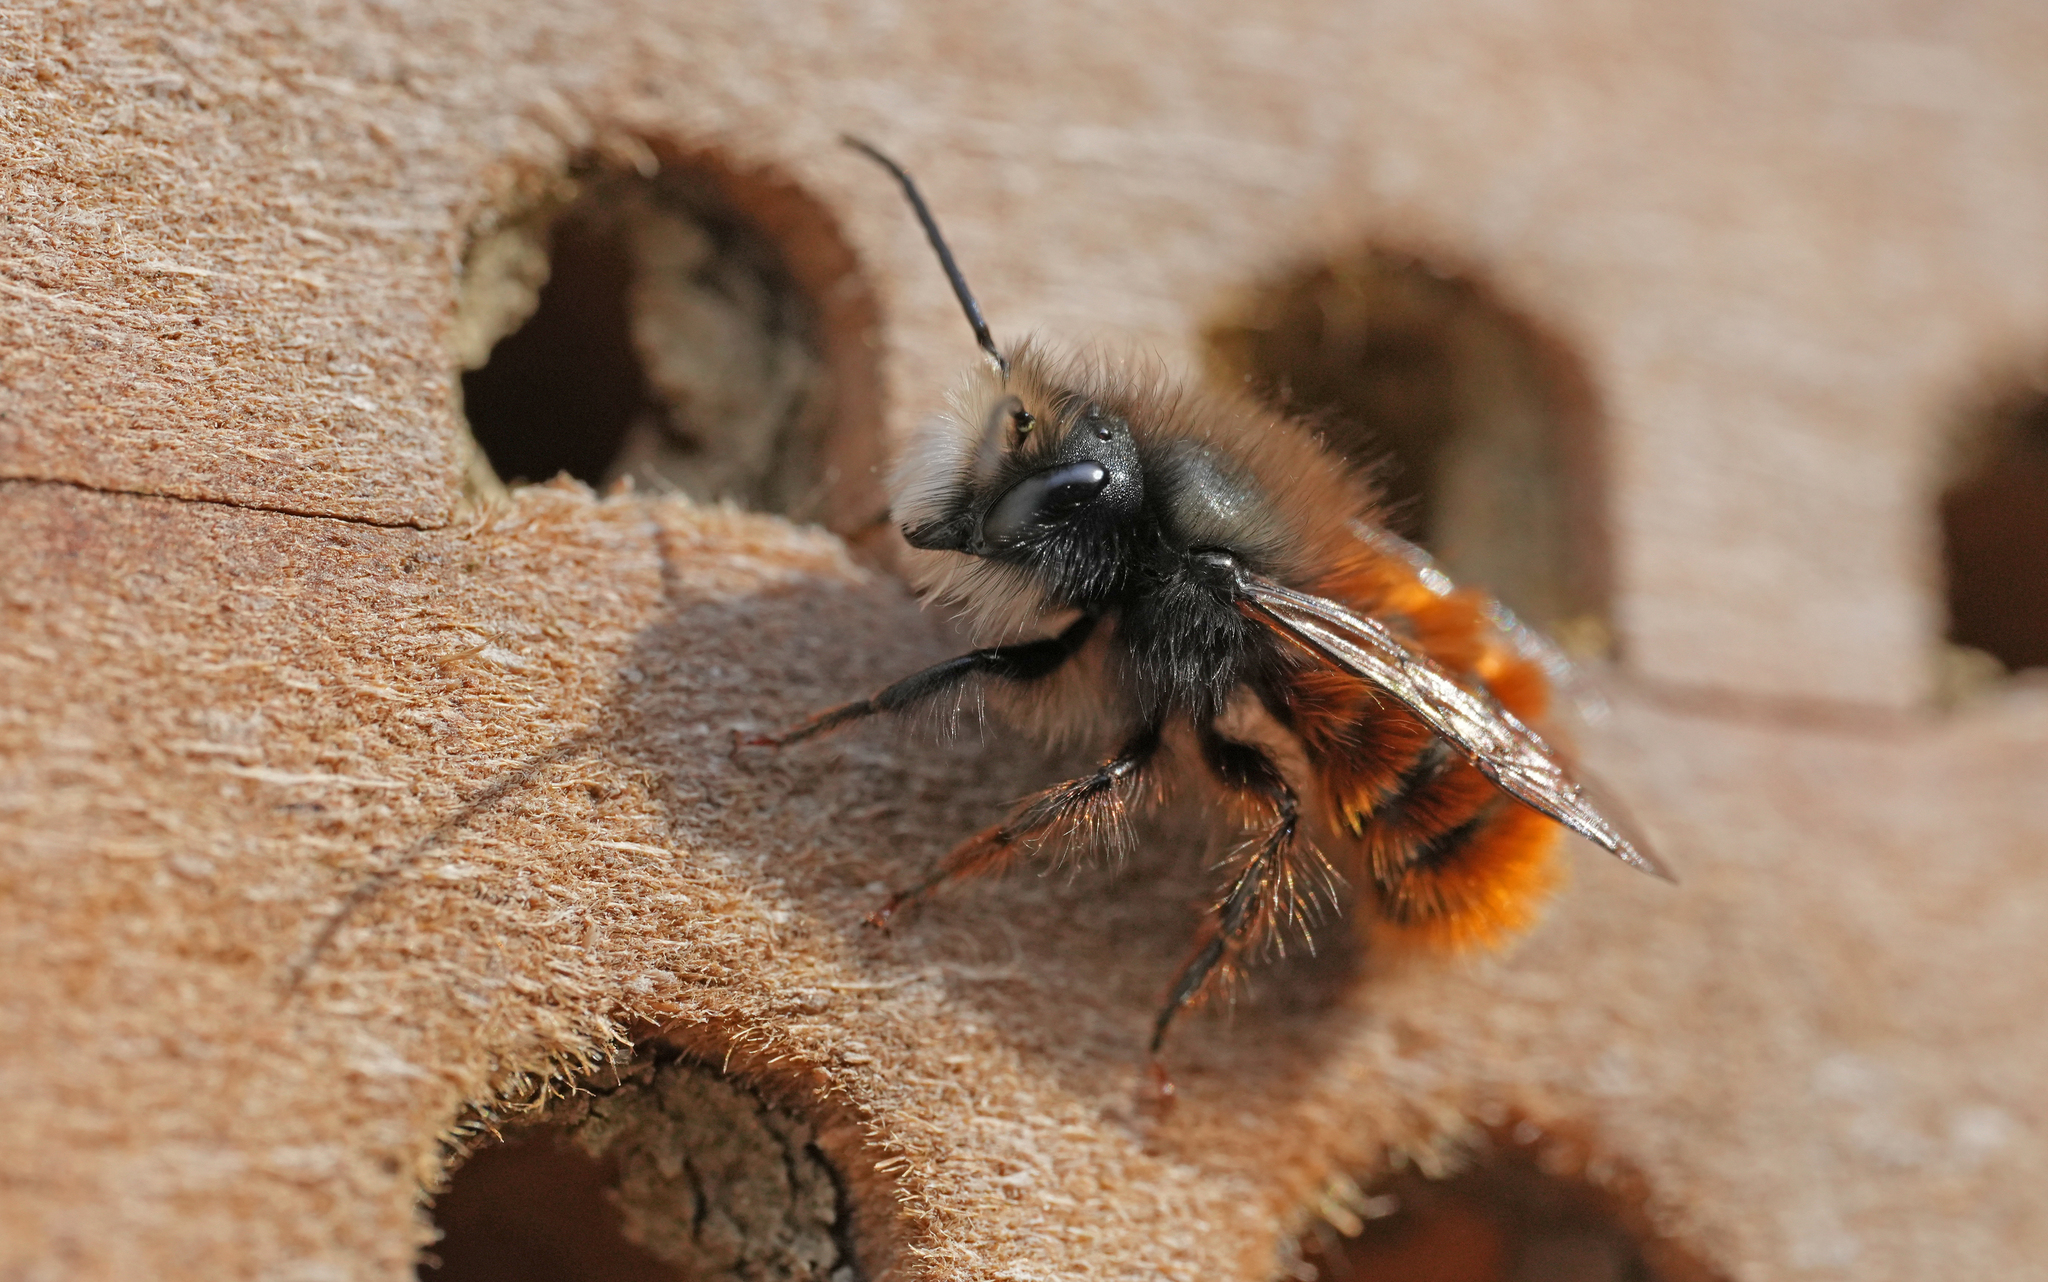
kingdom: Animalia
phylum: Arthropoda
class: Insecta
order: Hymenoptera
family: Megachilidae
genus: Osmia
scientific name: Osmia cornuta
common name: Mason bee
